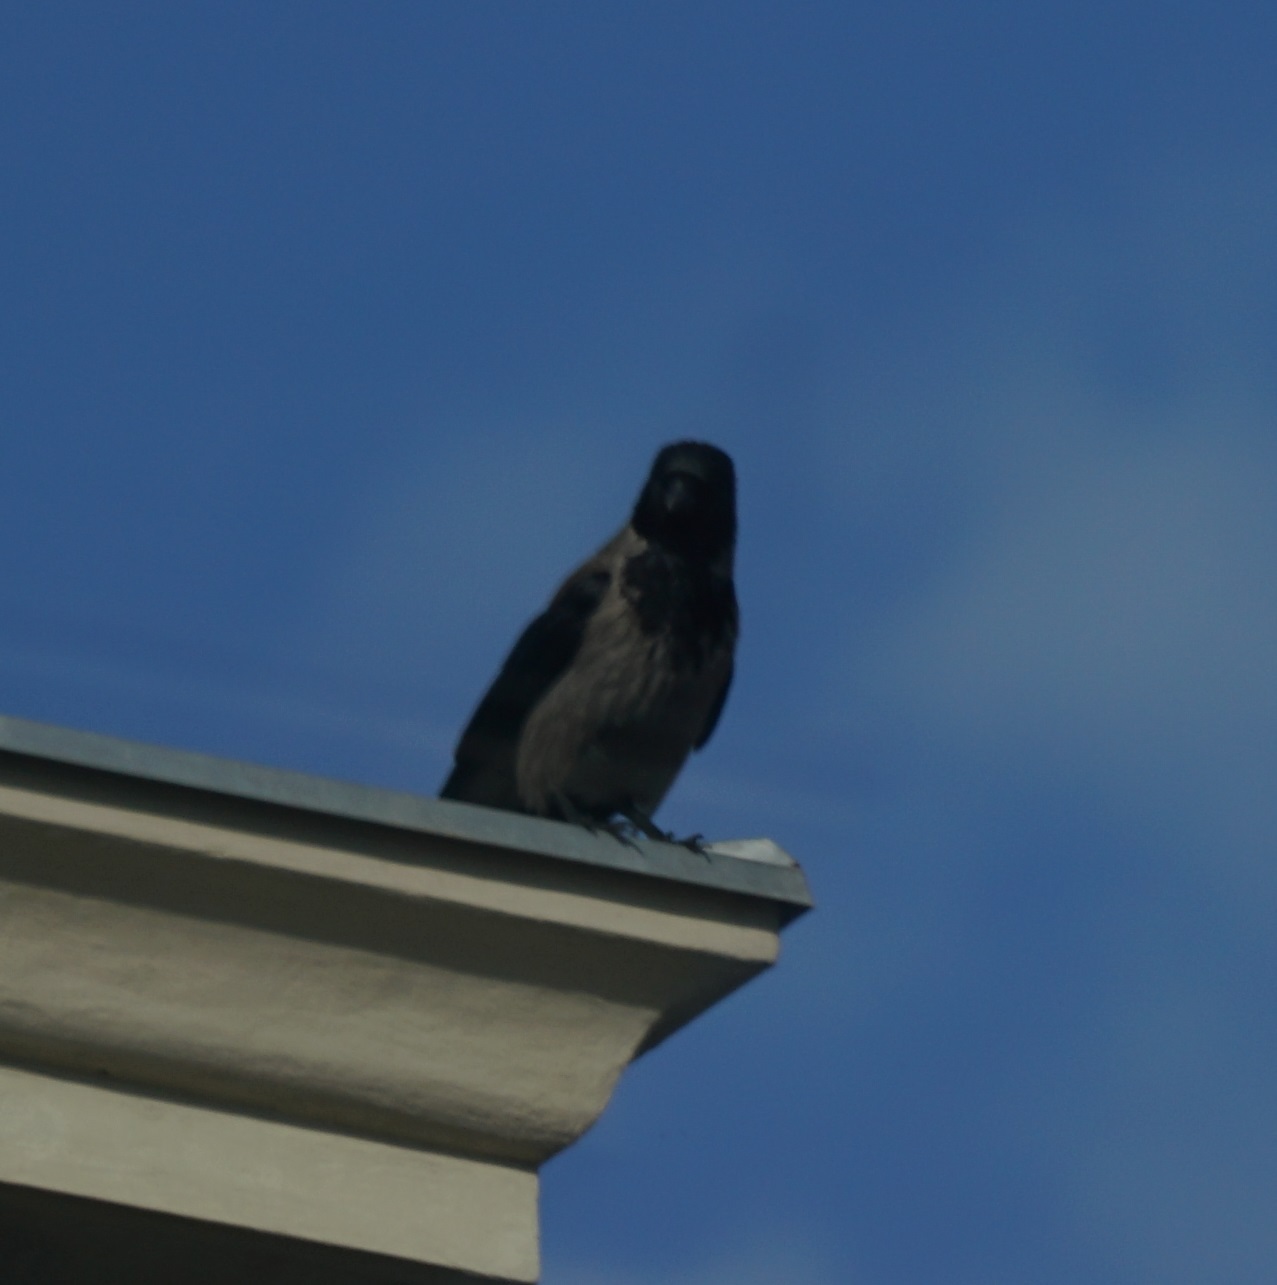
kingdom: Animalia
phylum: Chordata
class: Aves
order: Passeriformes
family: Corvidae
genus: Corvus
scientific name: Corvus cornix
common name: Hooded crow
